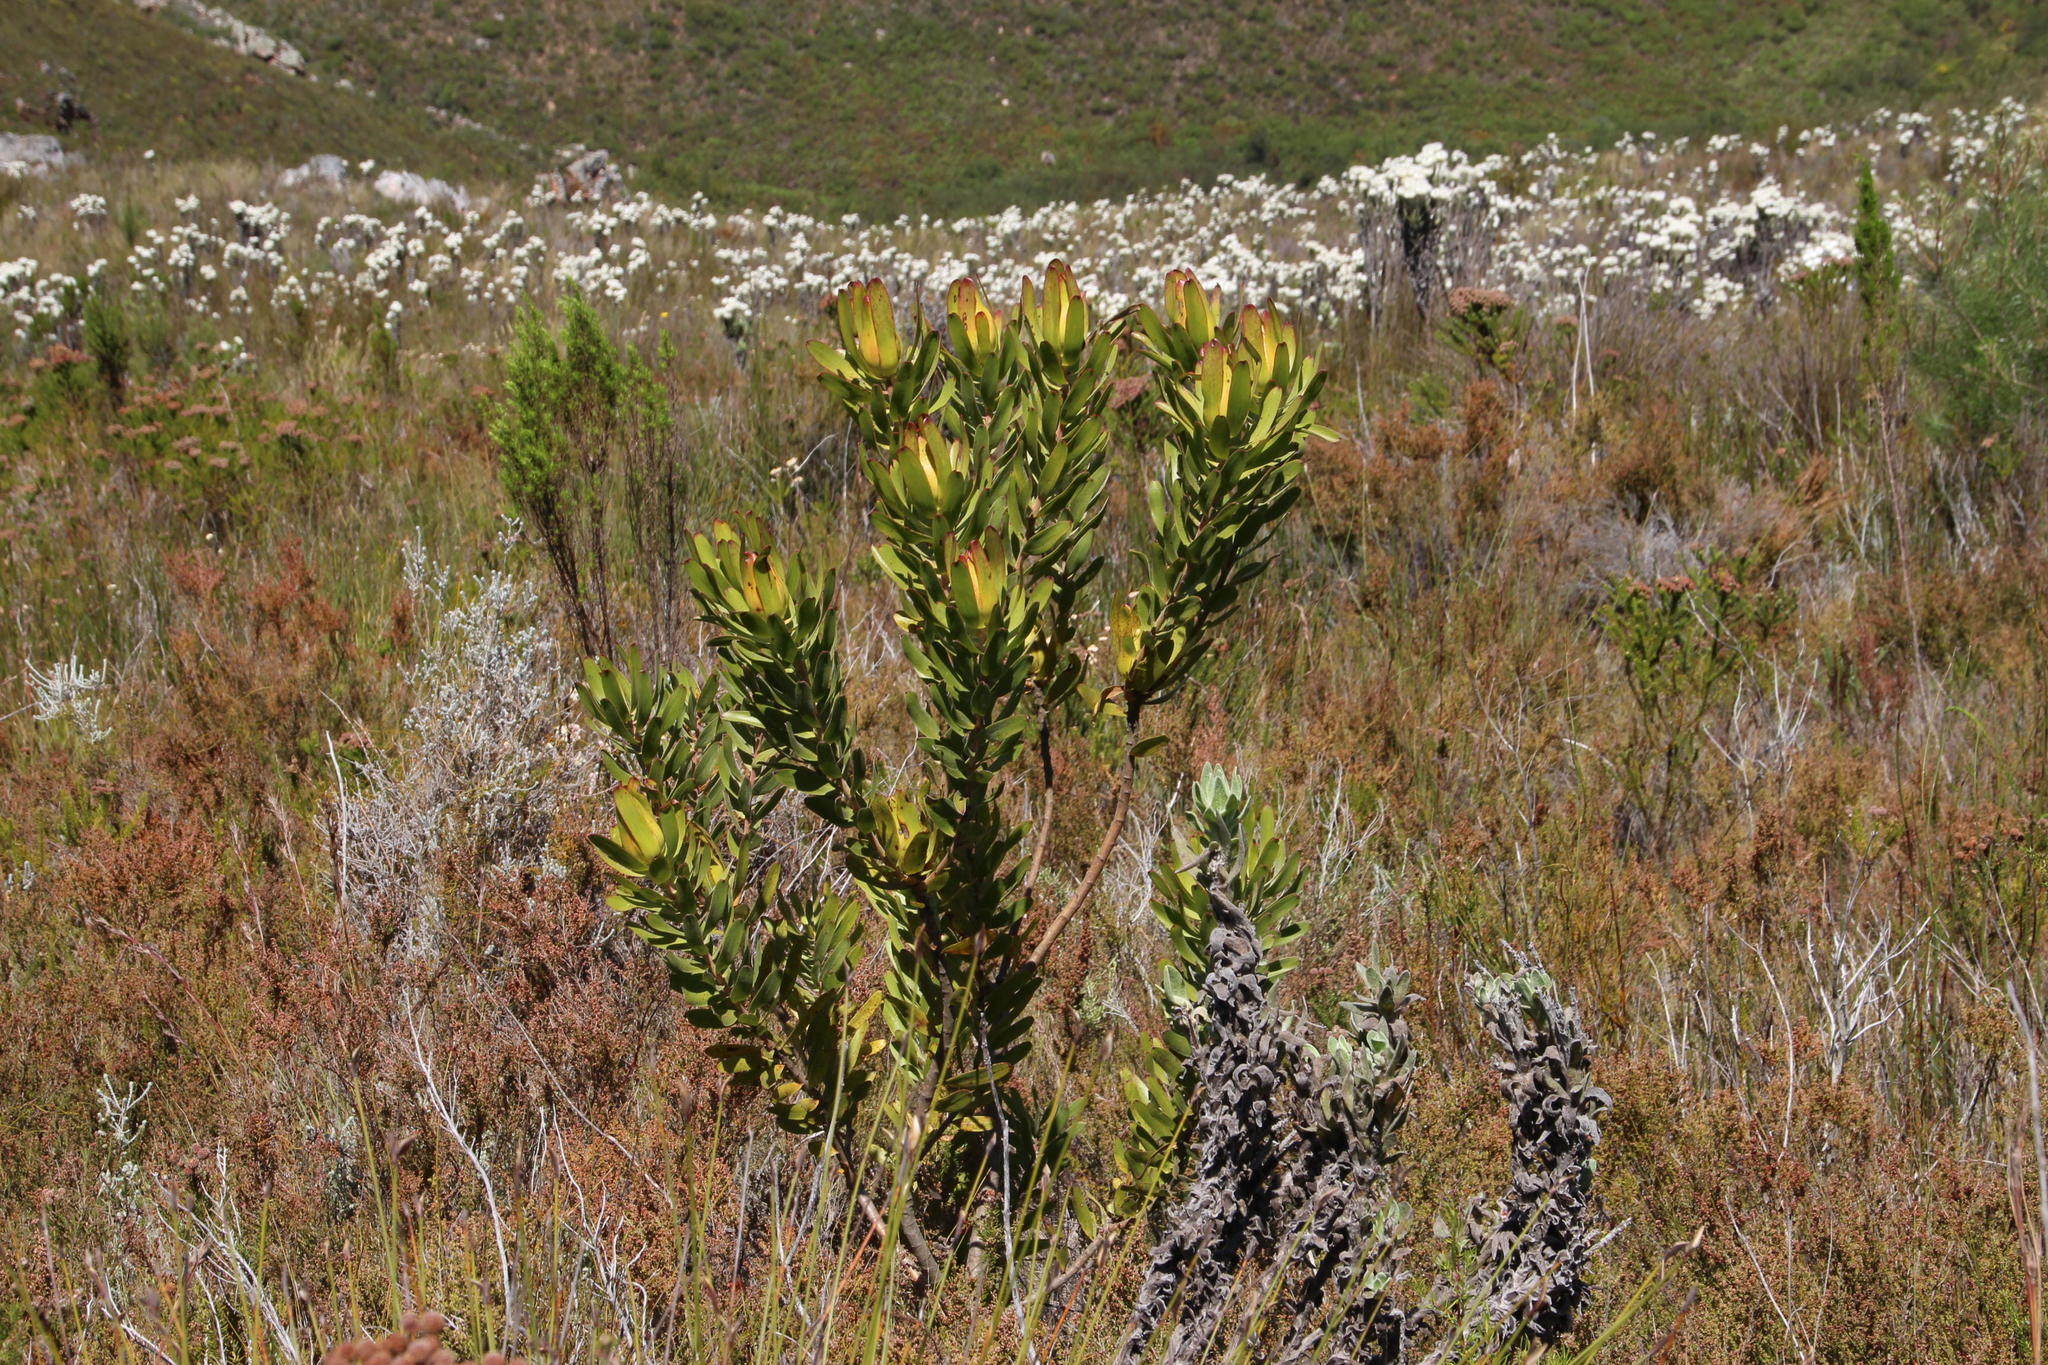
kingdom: Plantae
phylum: Tracheophyta
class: Magnoliopsida
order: Proteales
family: Proteaceae
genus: Leucadendron
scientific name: Leucadendron laureolum
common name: Golden sunshinebush
